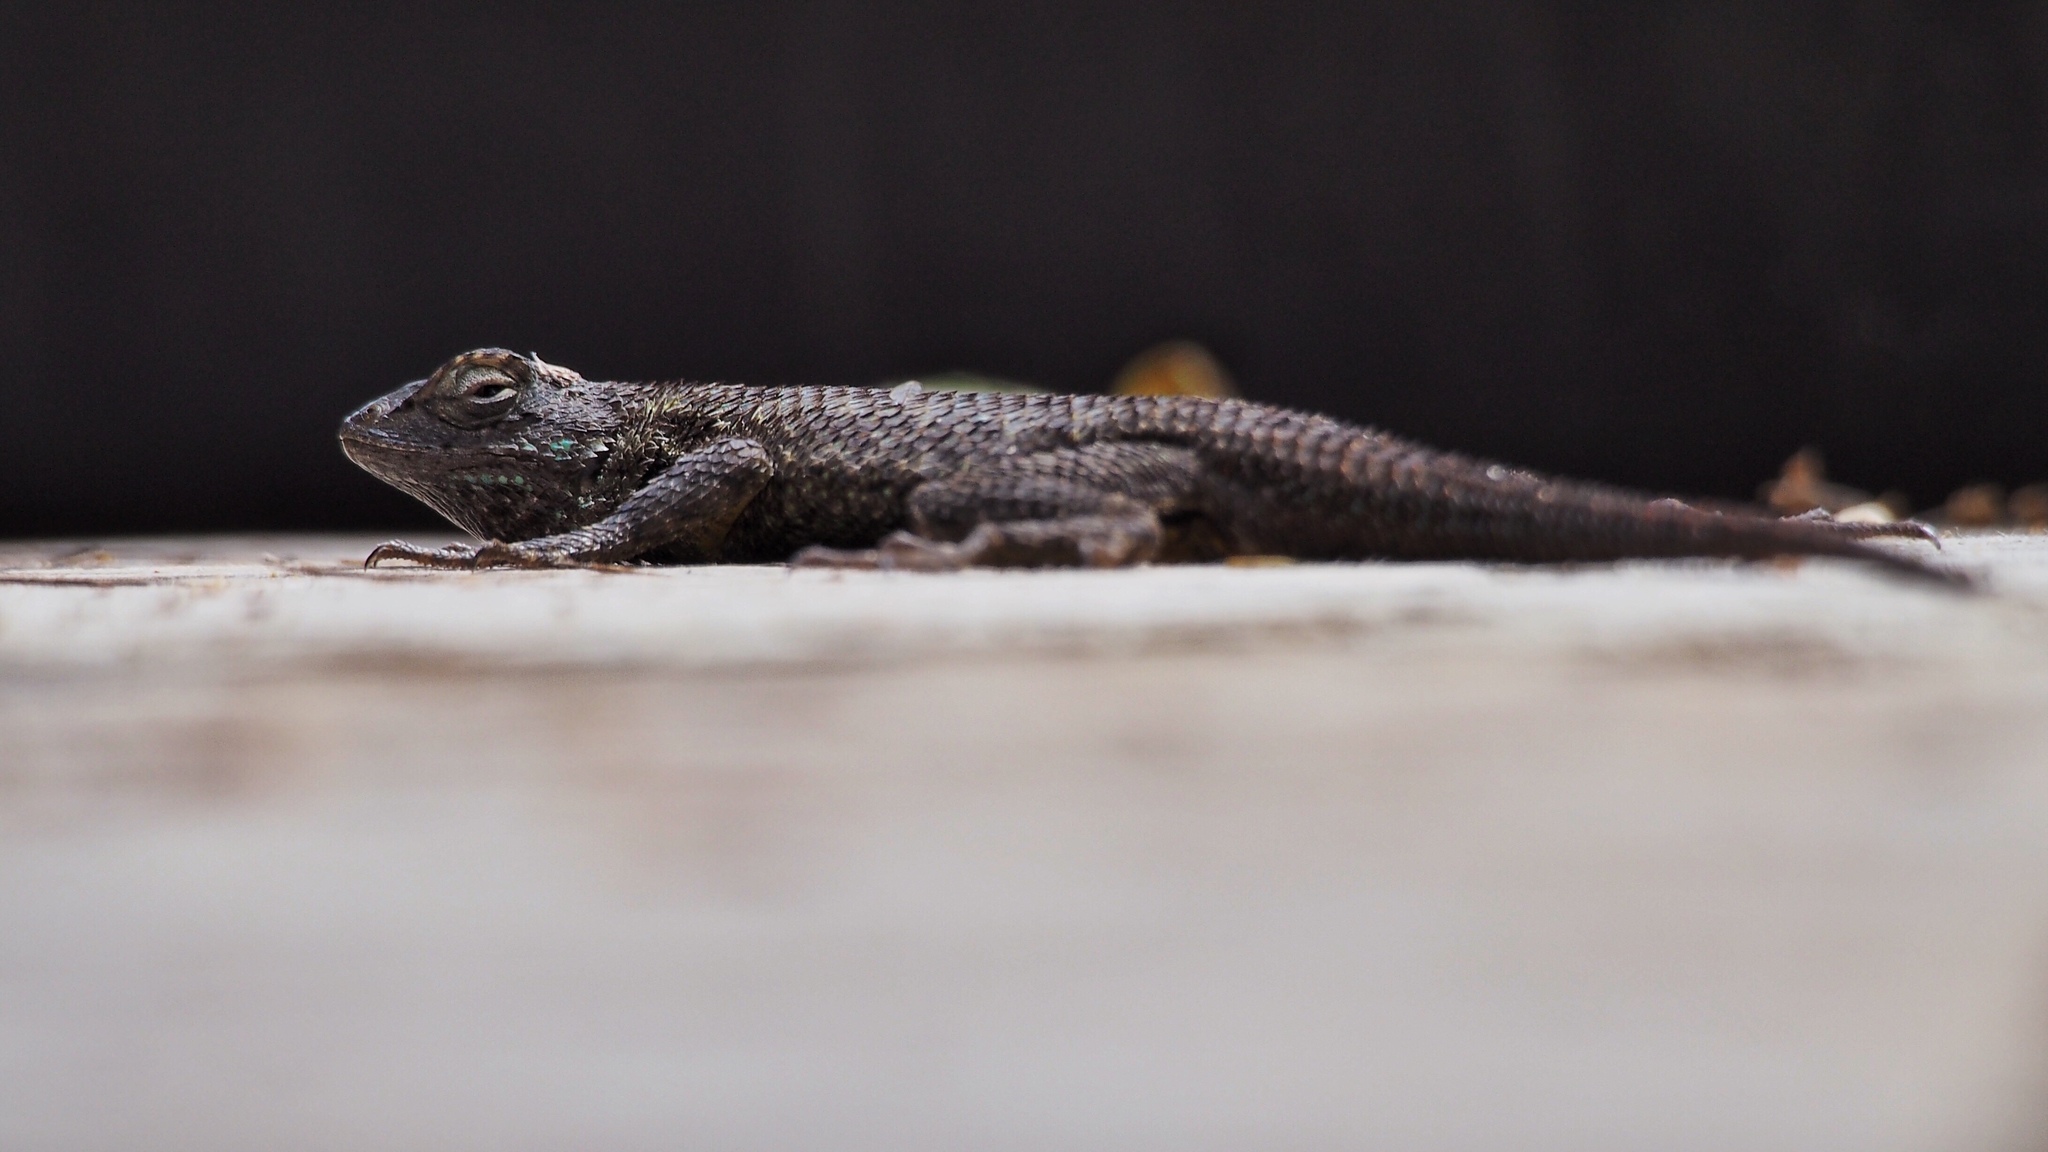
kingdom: Animalia
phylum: Chordata
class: Squamata
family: Phrynosomatidae
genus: Sceloporus
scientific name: Sceloporus occidentalis
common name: Western fence lizard
